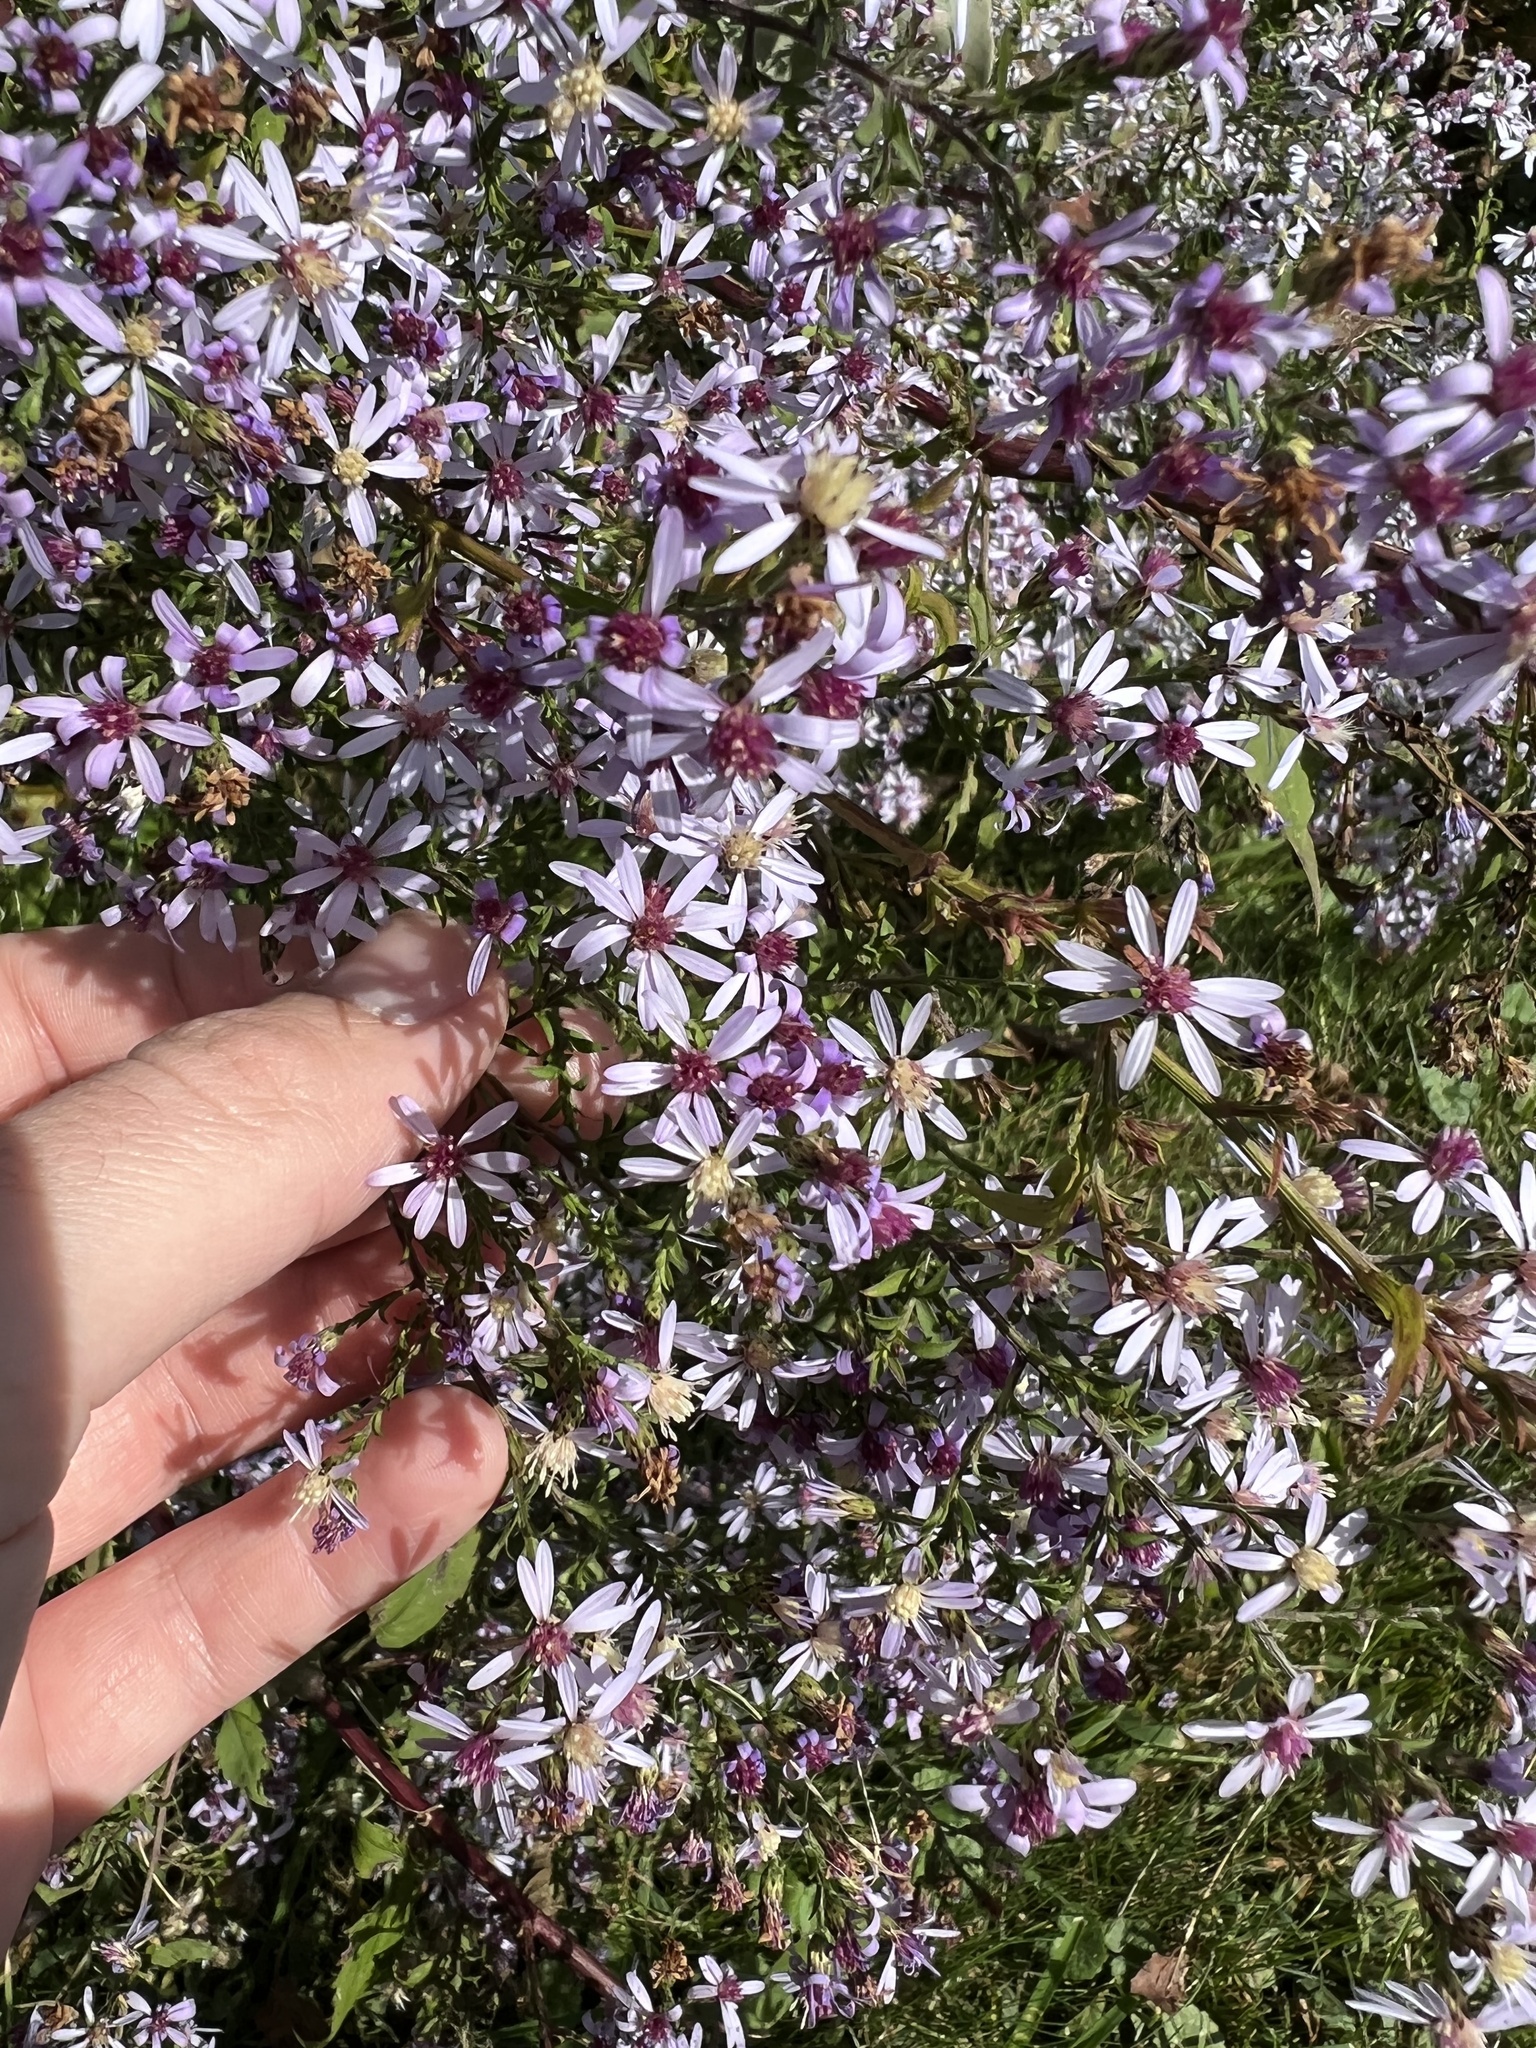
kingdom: Plantae
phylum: Tracheophyta
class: Magnoliopsida
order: Asterales
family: Asteraceae
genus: Symphyotrichum
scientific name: Symphyotrichum cordifolium
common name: Beeweed
